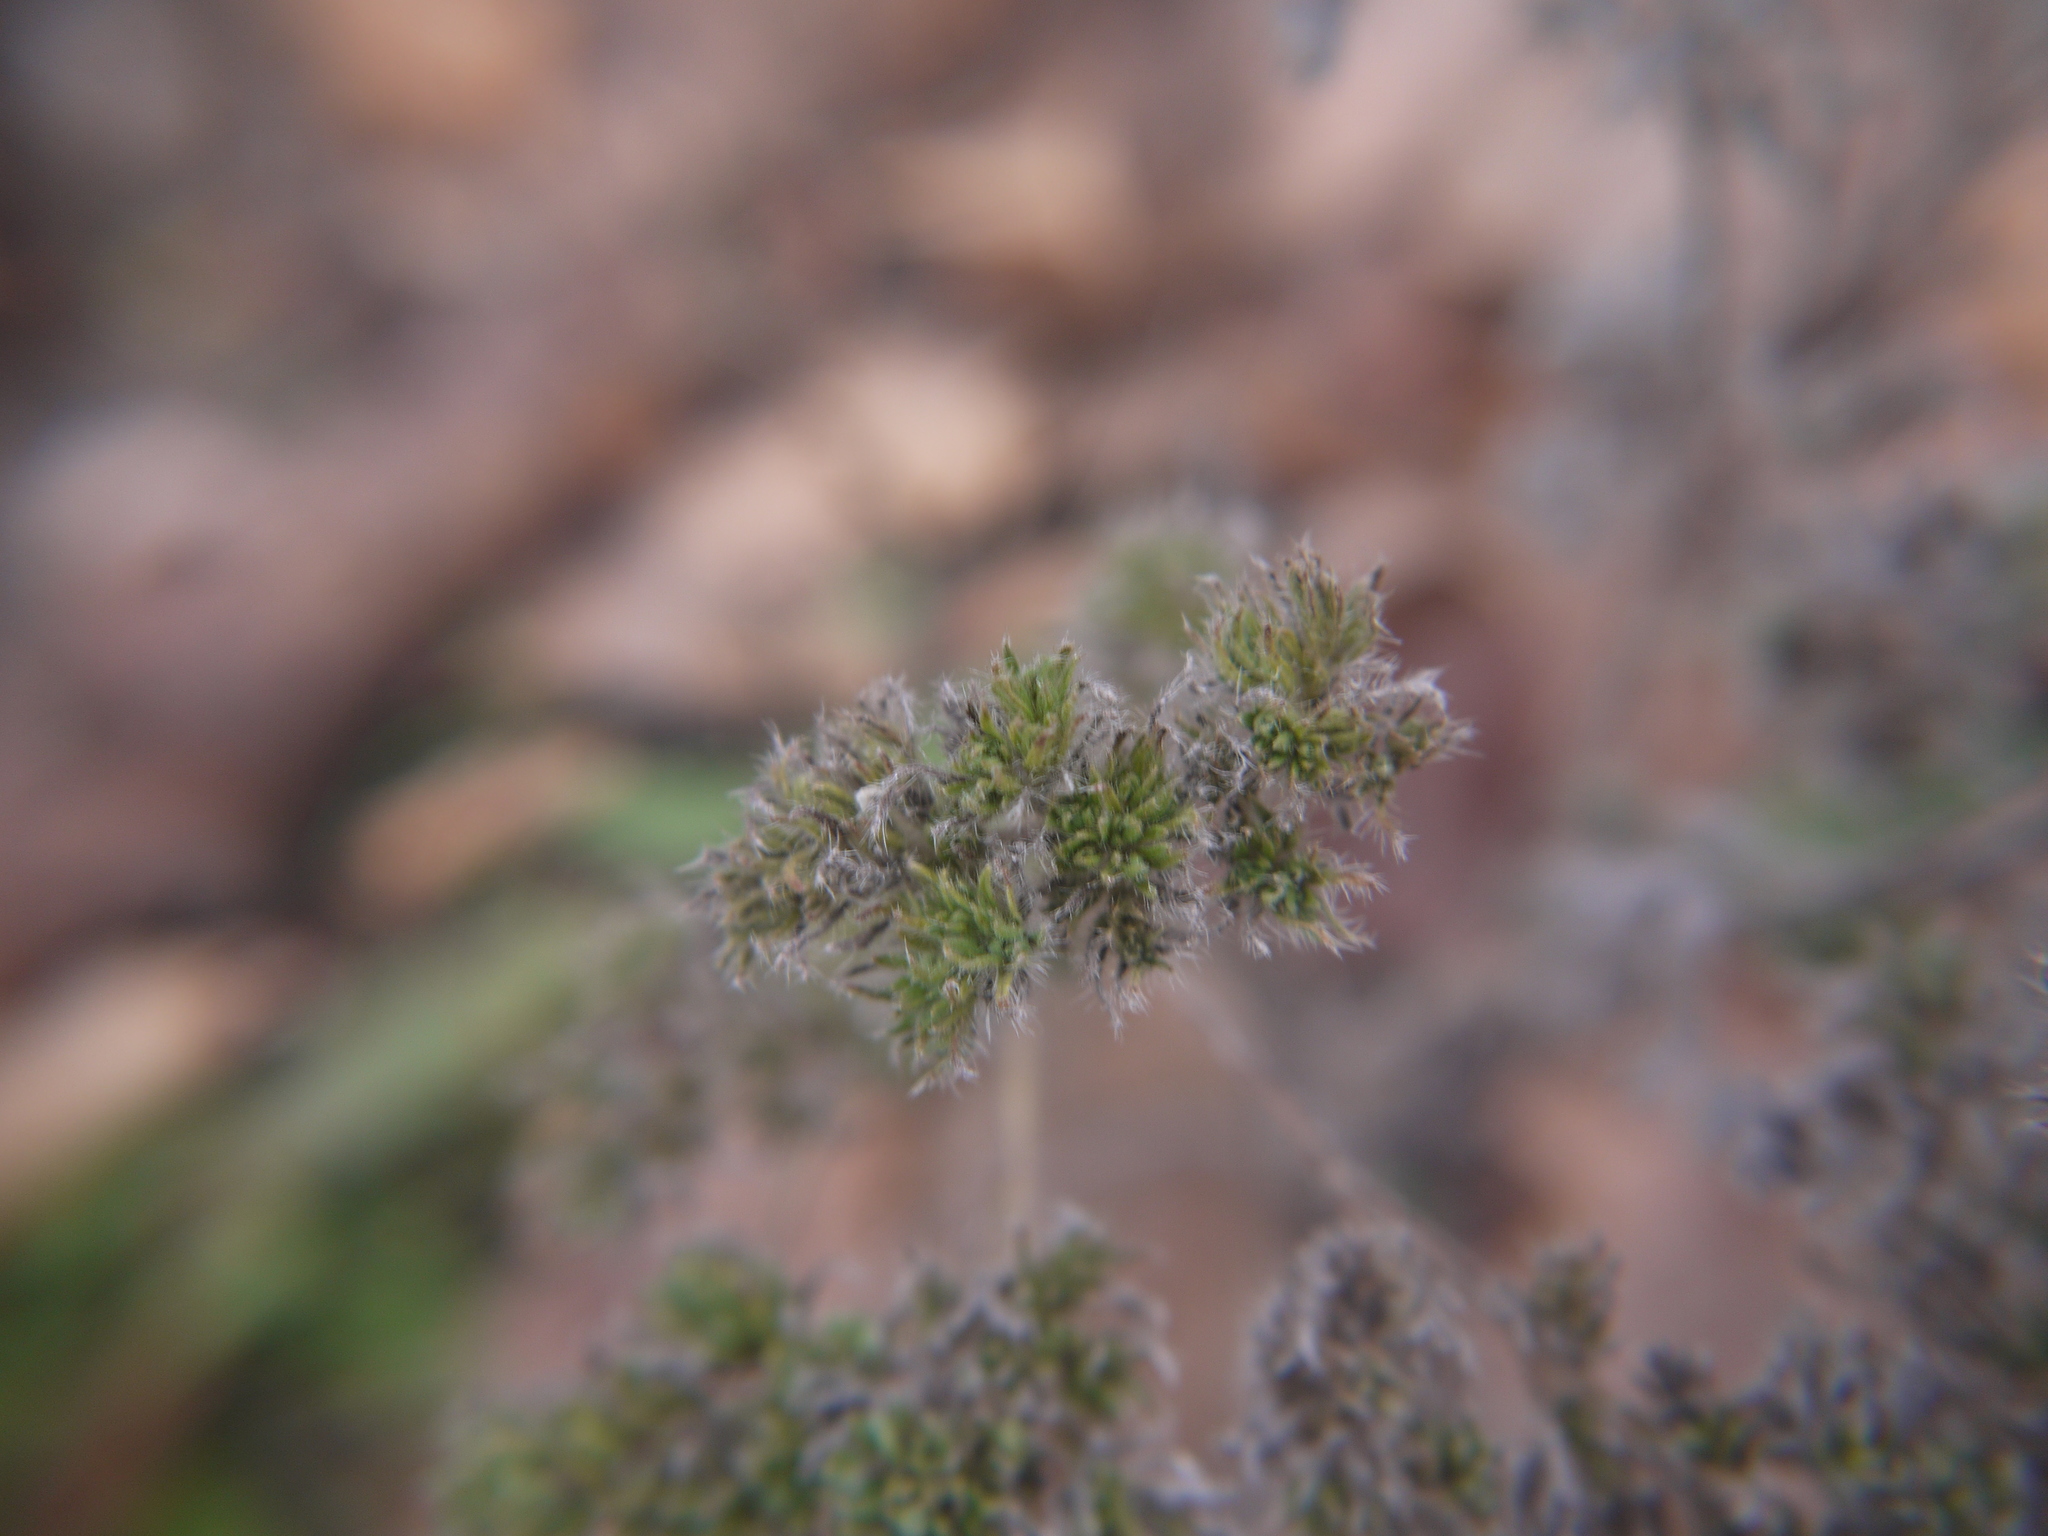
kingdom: Plantae
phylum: Tracheophyta
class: Magnoliopsida
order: Boraginales
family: Boraginaceae
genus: Echium
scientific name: Echium vulgare
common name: Common viper's bugloss
